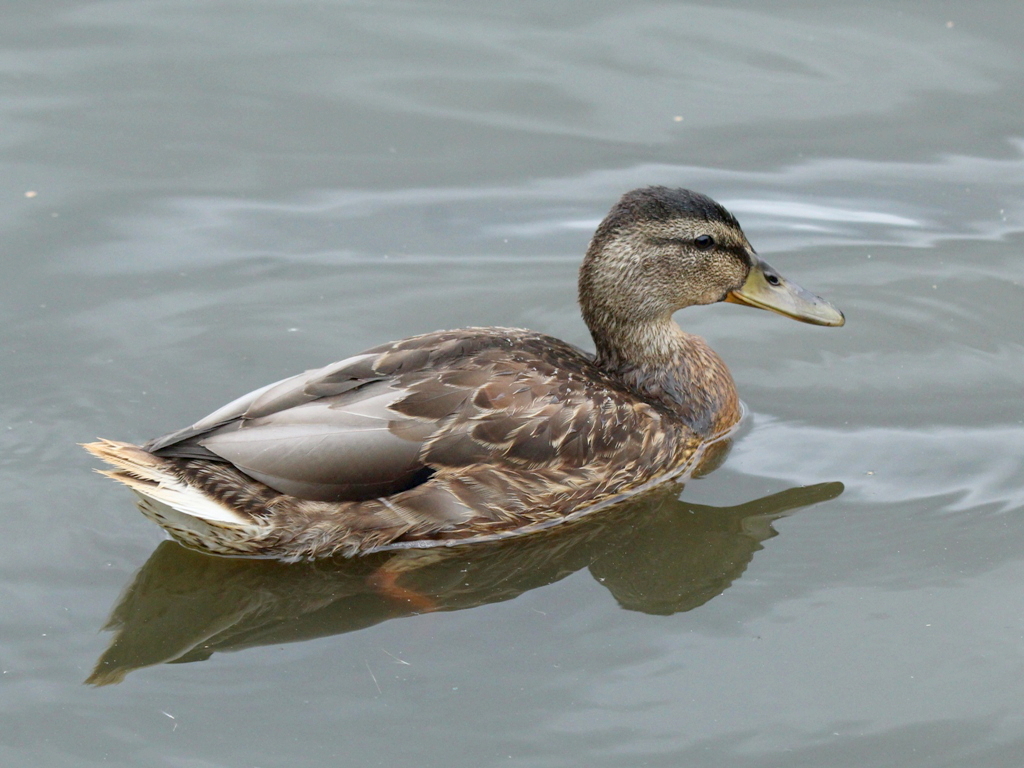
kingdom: Animalia
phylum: Chordata
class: Aves
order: Anseriformes
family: Anatidae
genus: Anas
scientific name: Anas platyrhynchos
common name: Mallard
